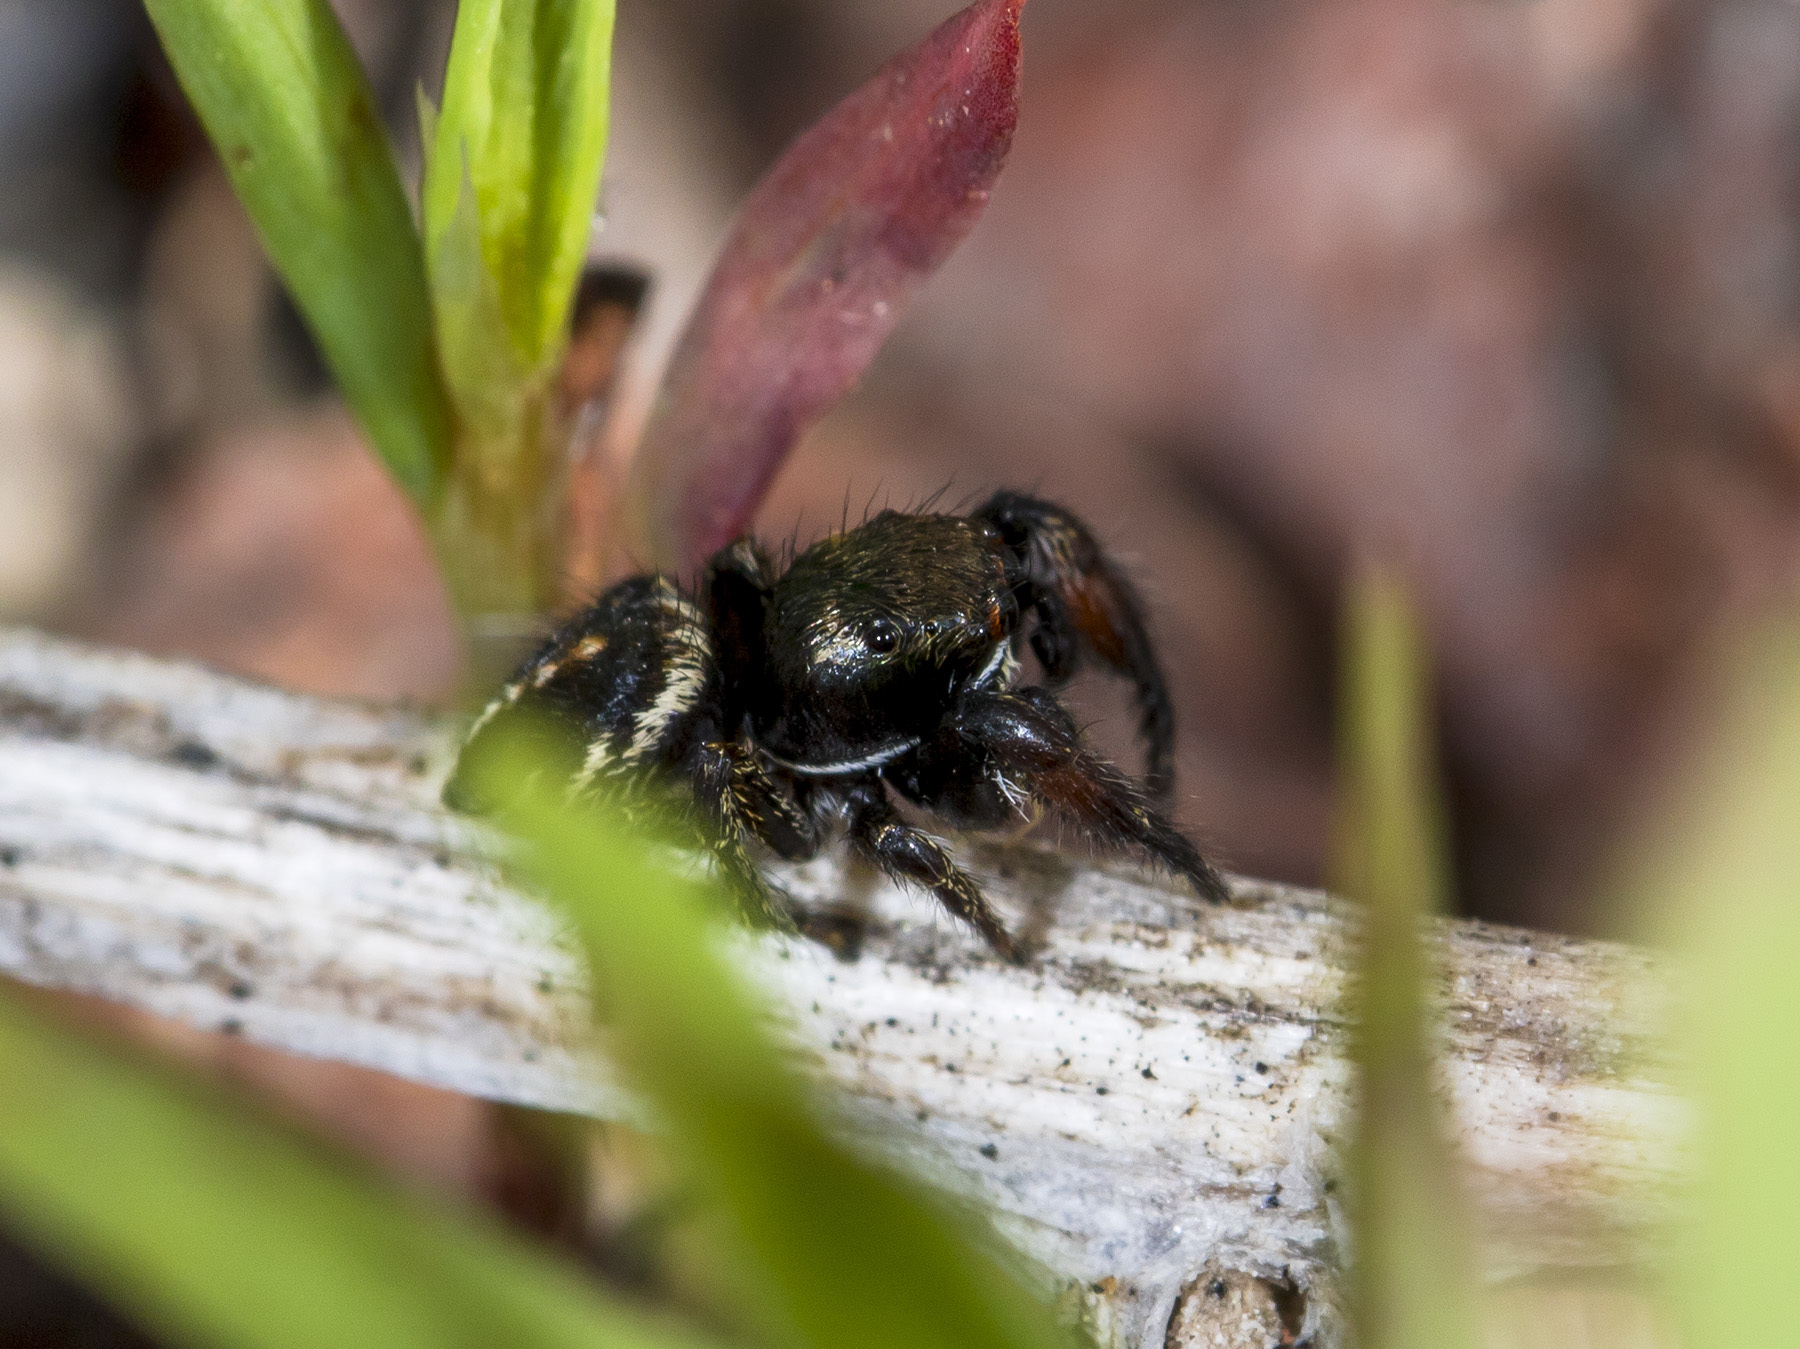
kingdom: Animalia
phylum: Arthropoda
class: Arachnida
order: Araneae
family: Salticidae
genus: Pellenes
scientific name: Pellenes allegrii
